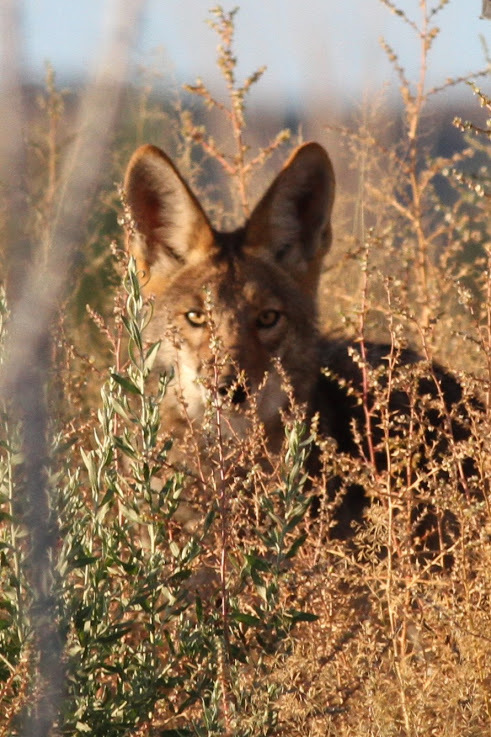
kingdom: Animalia
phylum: Chordata
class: Mammalia
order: Carnivora
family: Canidae
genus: Canis
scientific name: Canis latrans
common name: Coyote
